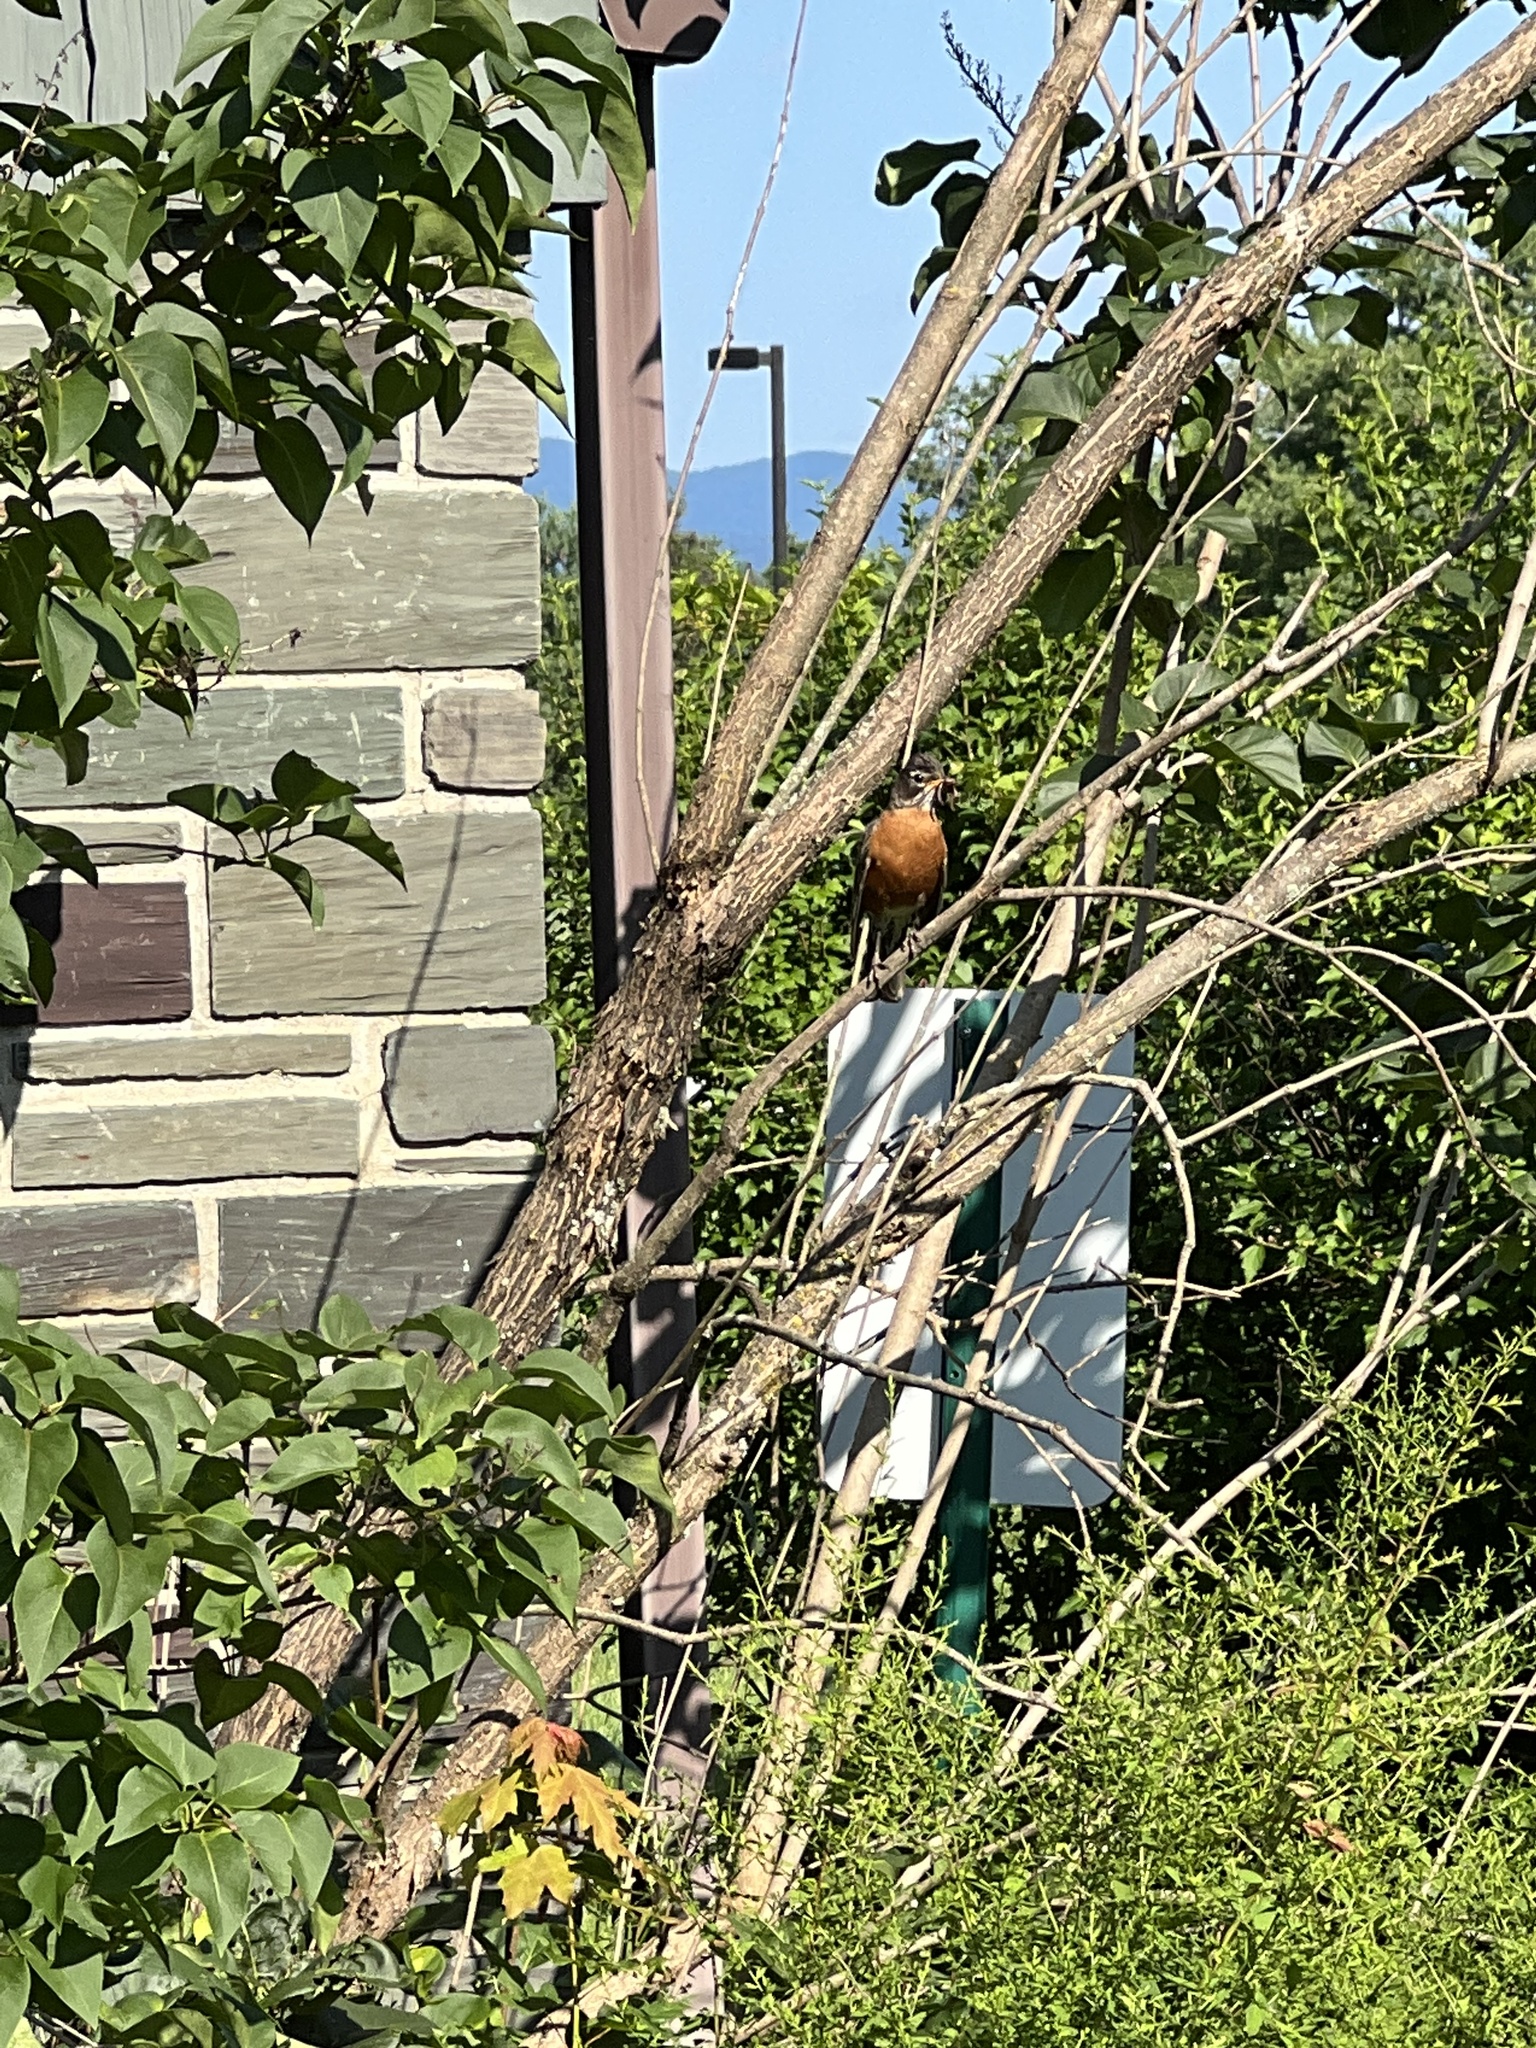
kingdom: Animalia
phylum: Chordata
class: Aves
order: Passeriformes
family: Turdidae
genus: Turdus
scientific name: Turdus migratorius
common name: American robin
